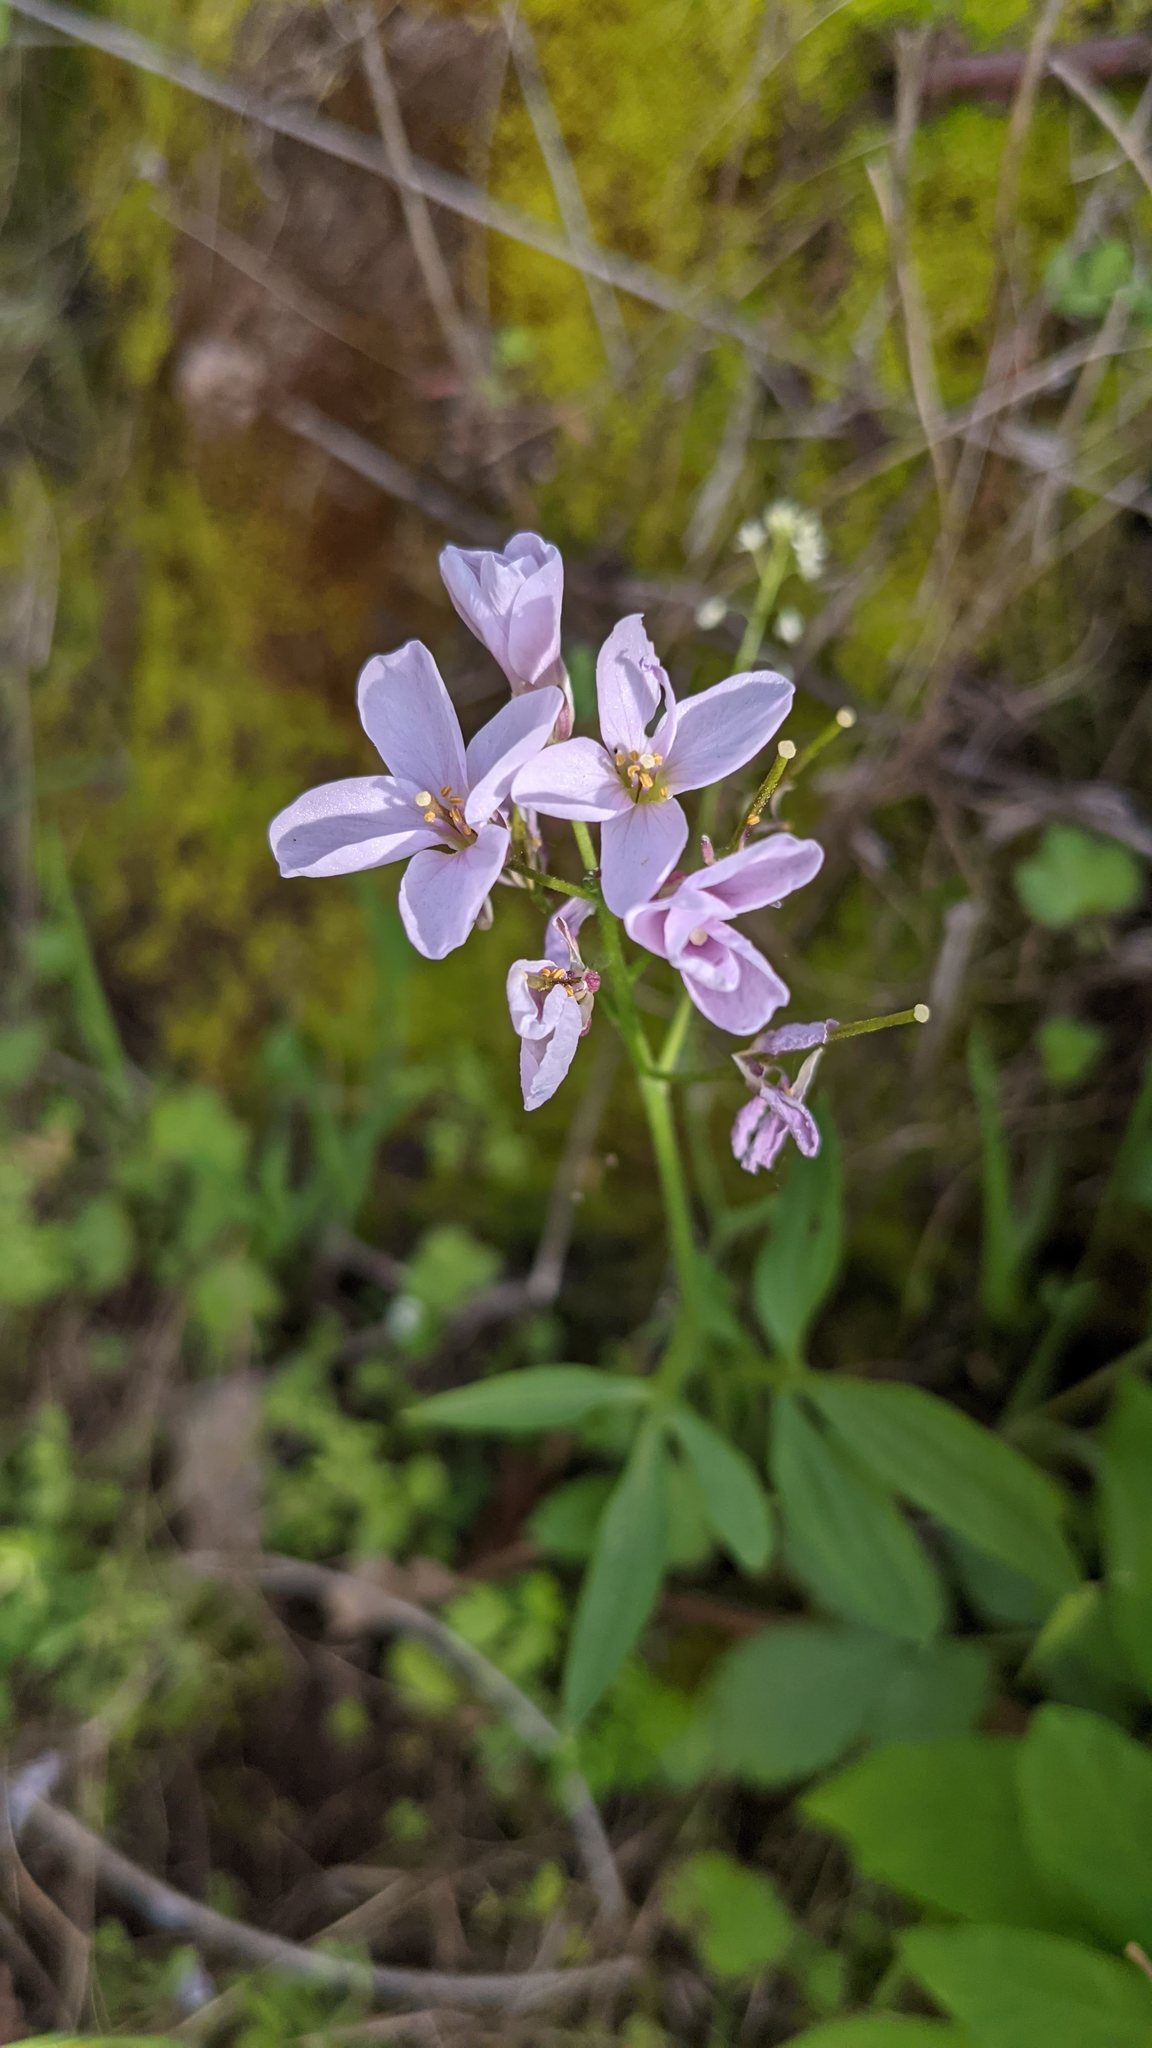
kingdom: Plantae
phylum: Tracheophyta
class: Magnoliopsida
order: Brassicales
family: Brassicaceae
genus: Cardamine
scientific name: Cardamine californica
